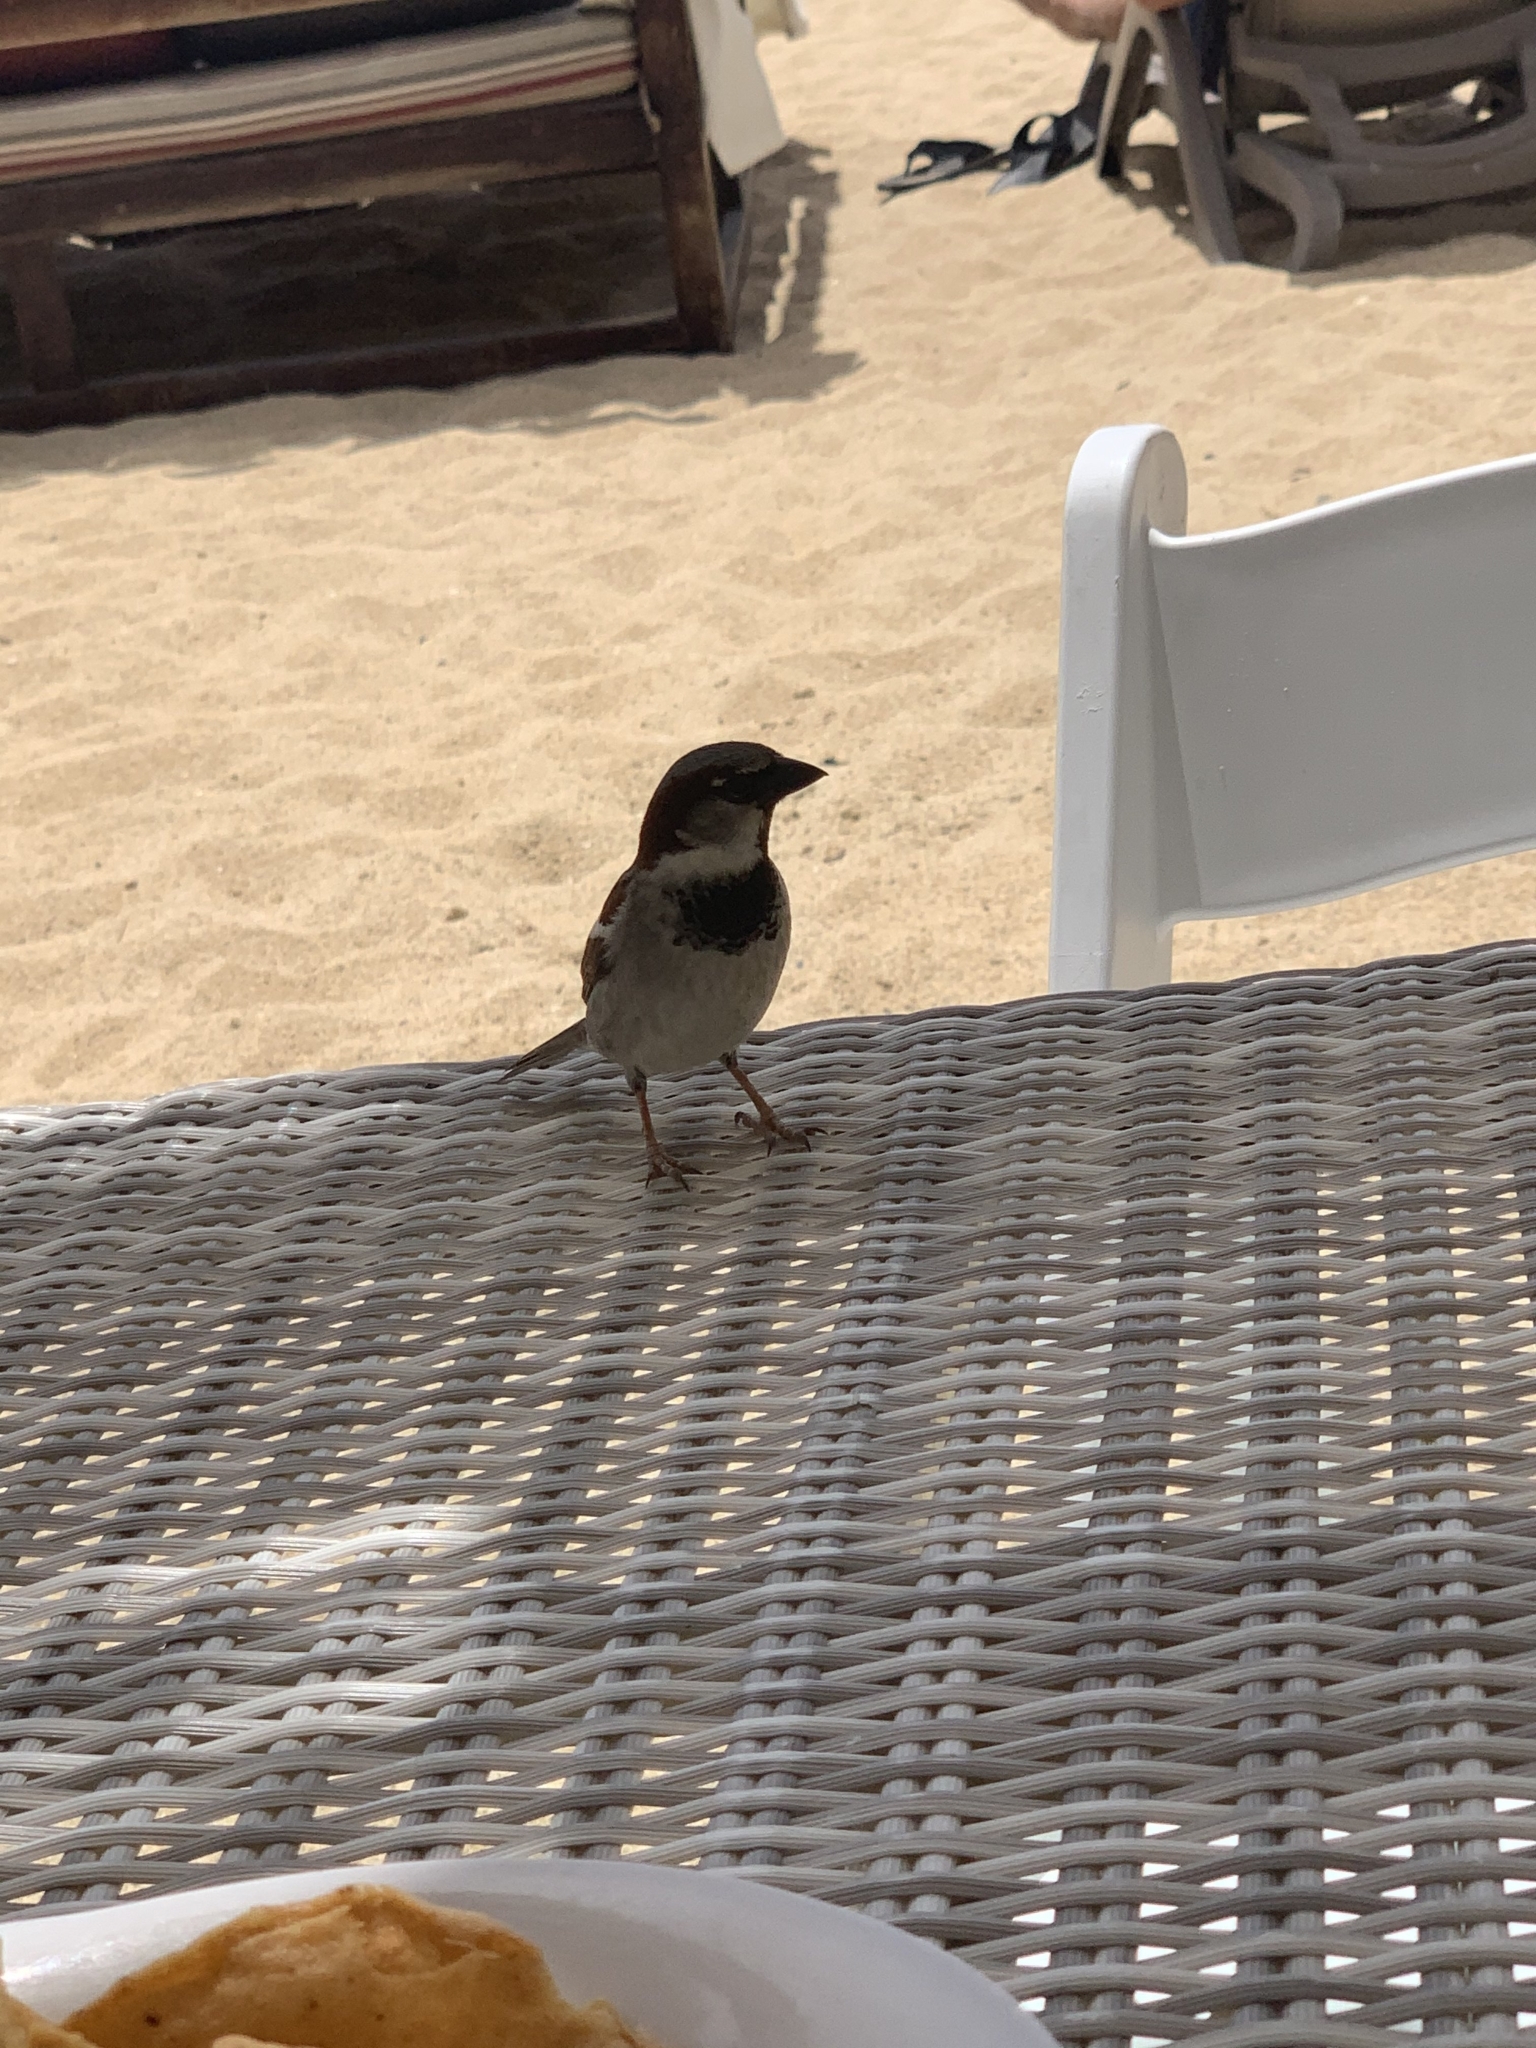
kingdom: Animalia
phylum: Chordata
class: Aves
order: Passeriformes
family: Passeridae
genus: Passer
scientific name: Passer domesticus
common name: House sparrow
